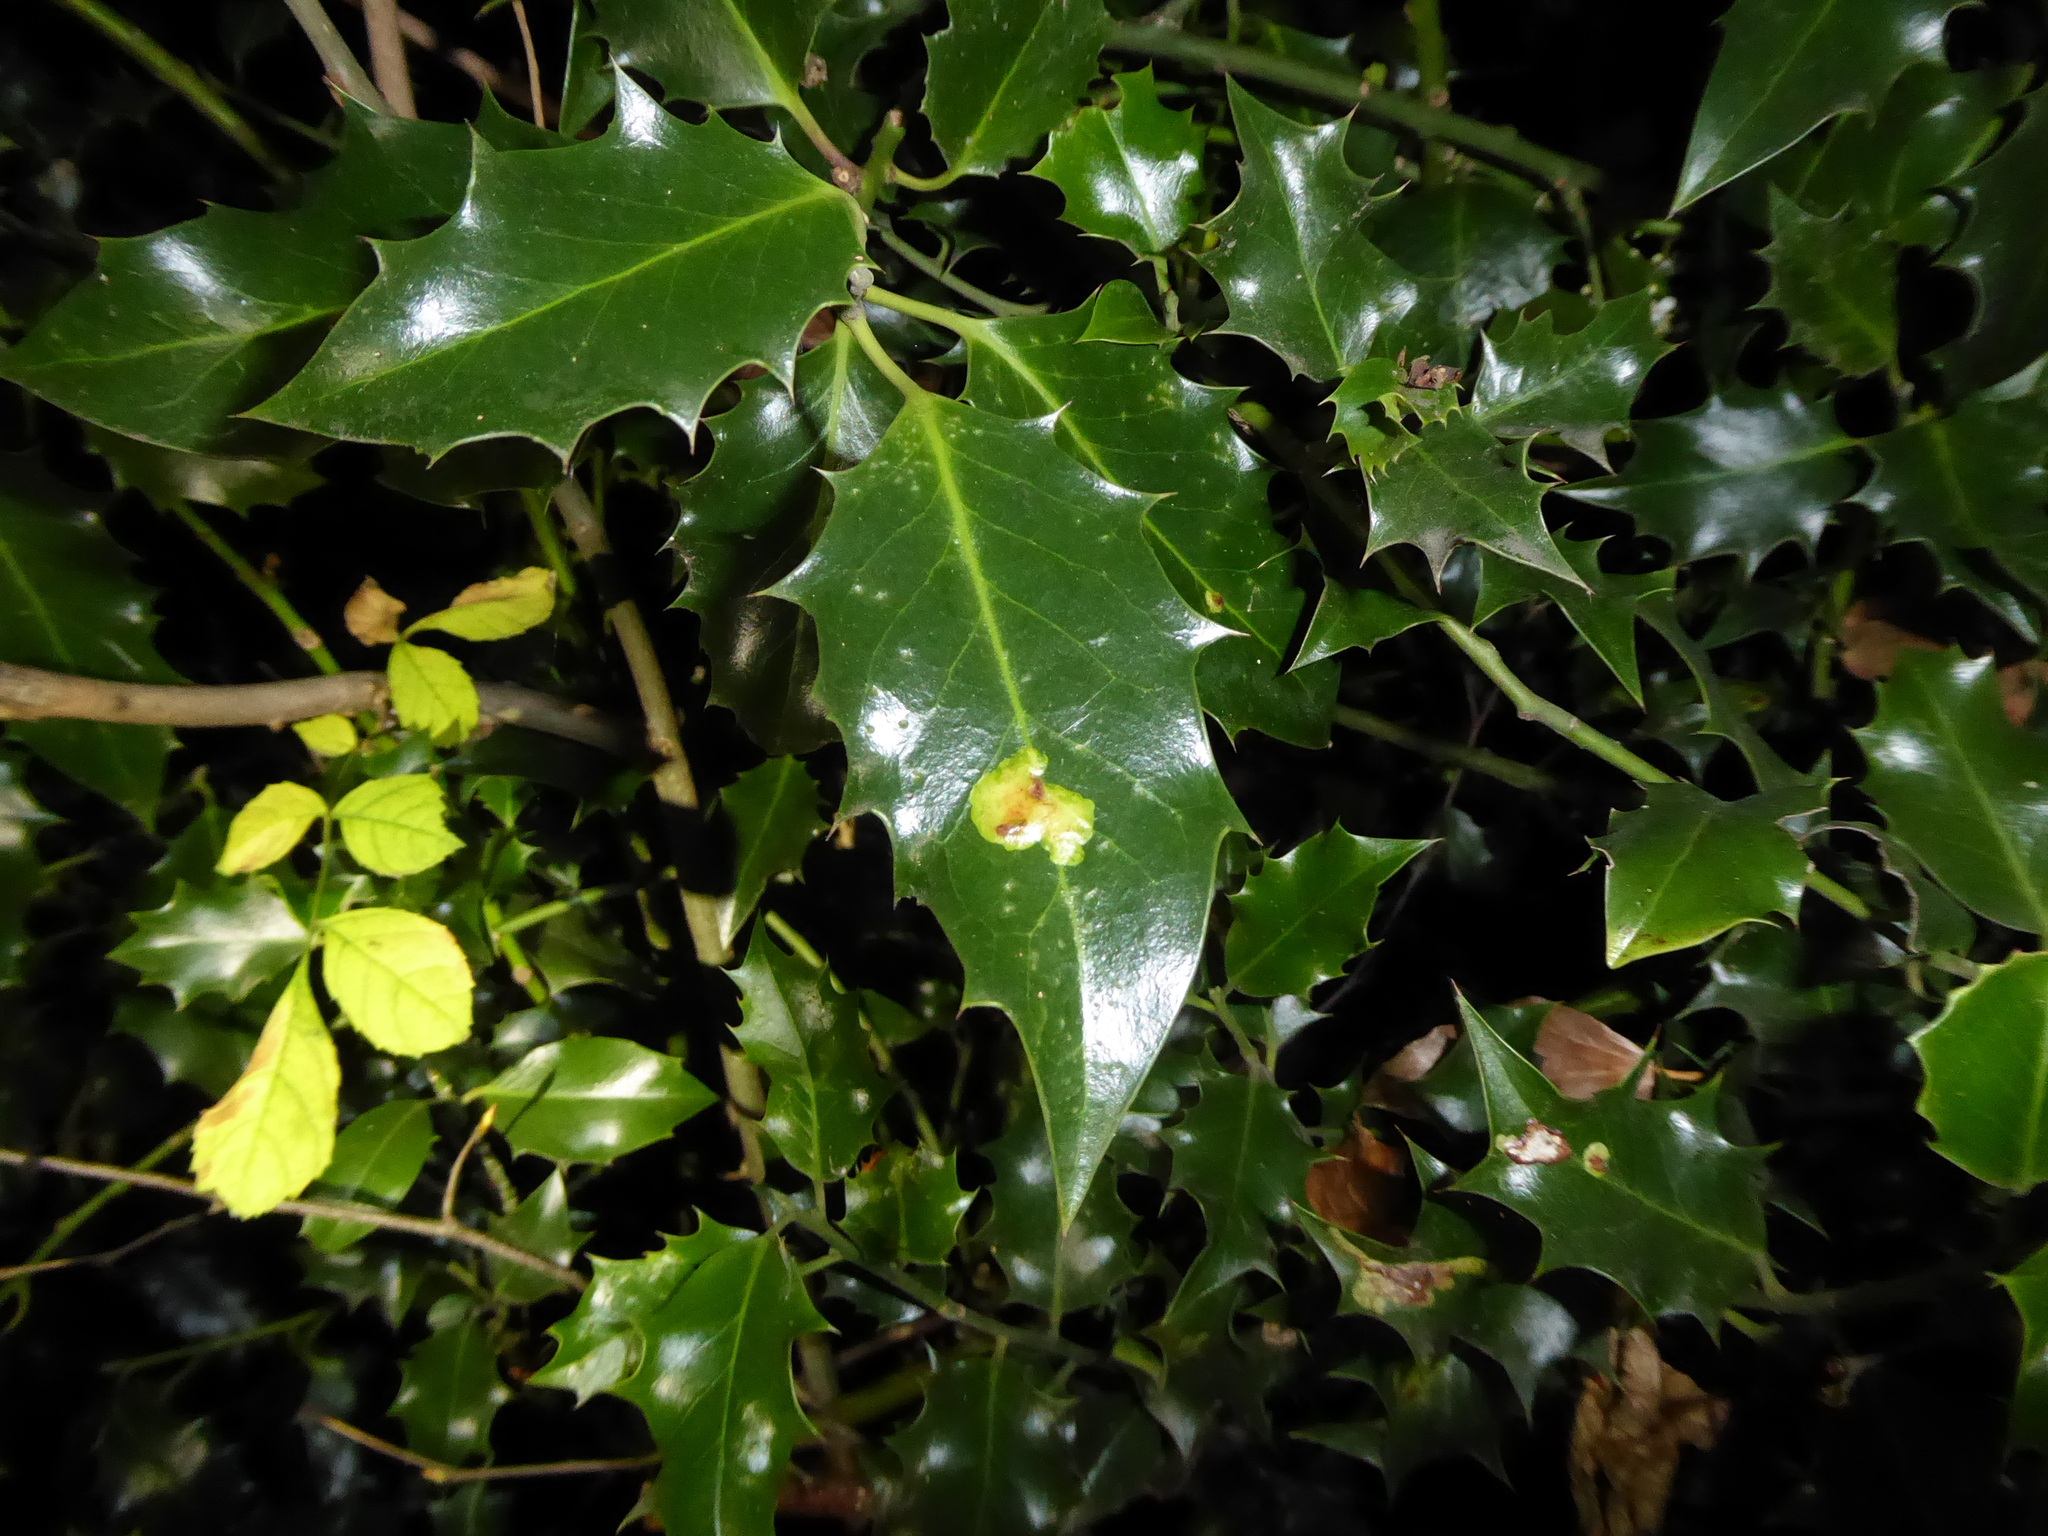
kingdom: Animalia
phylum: Arthropoda
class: Insecta
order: Diptera
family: Agromyzidae
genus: Phytomyza
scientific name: Phytomyza ilicis
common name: Holly leafminer
